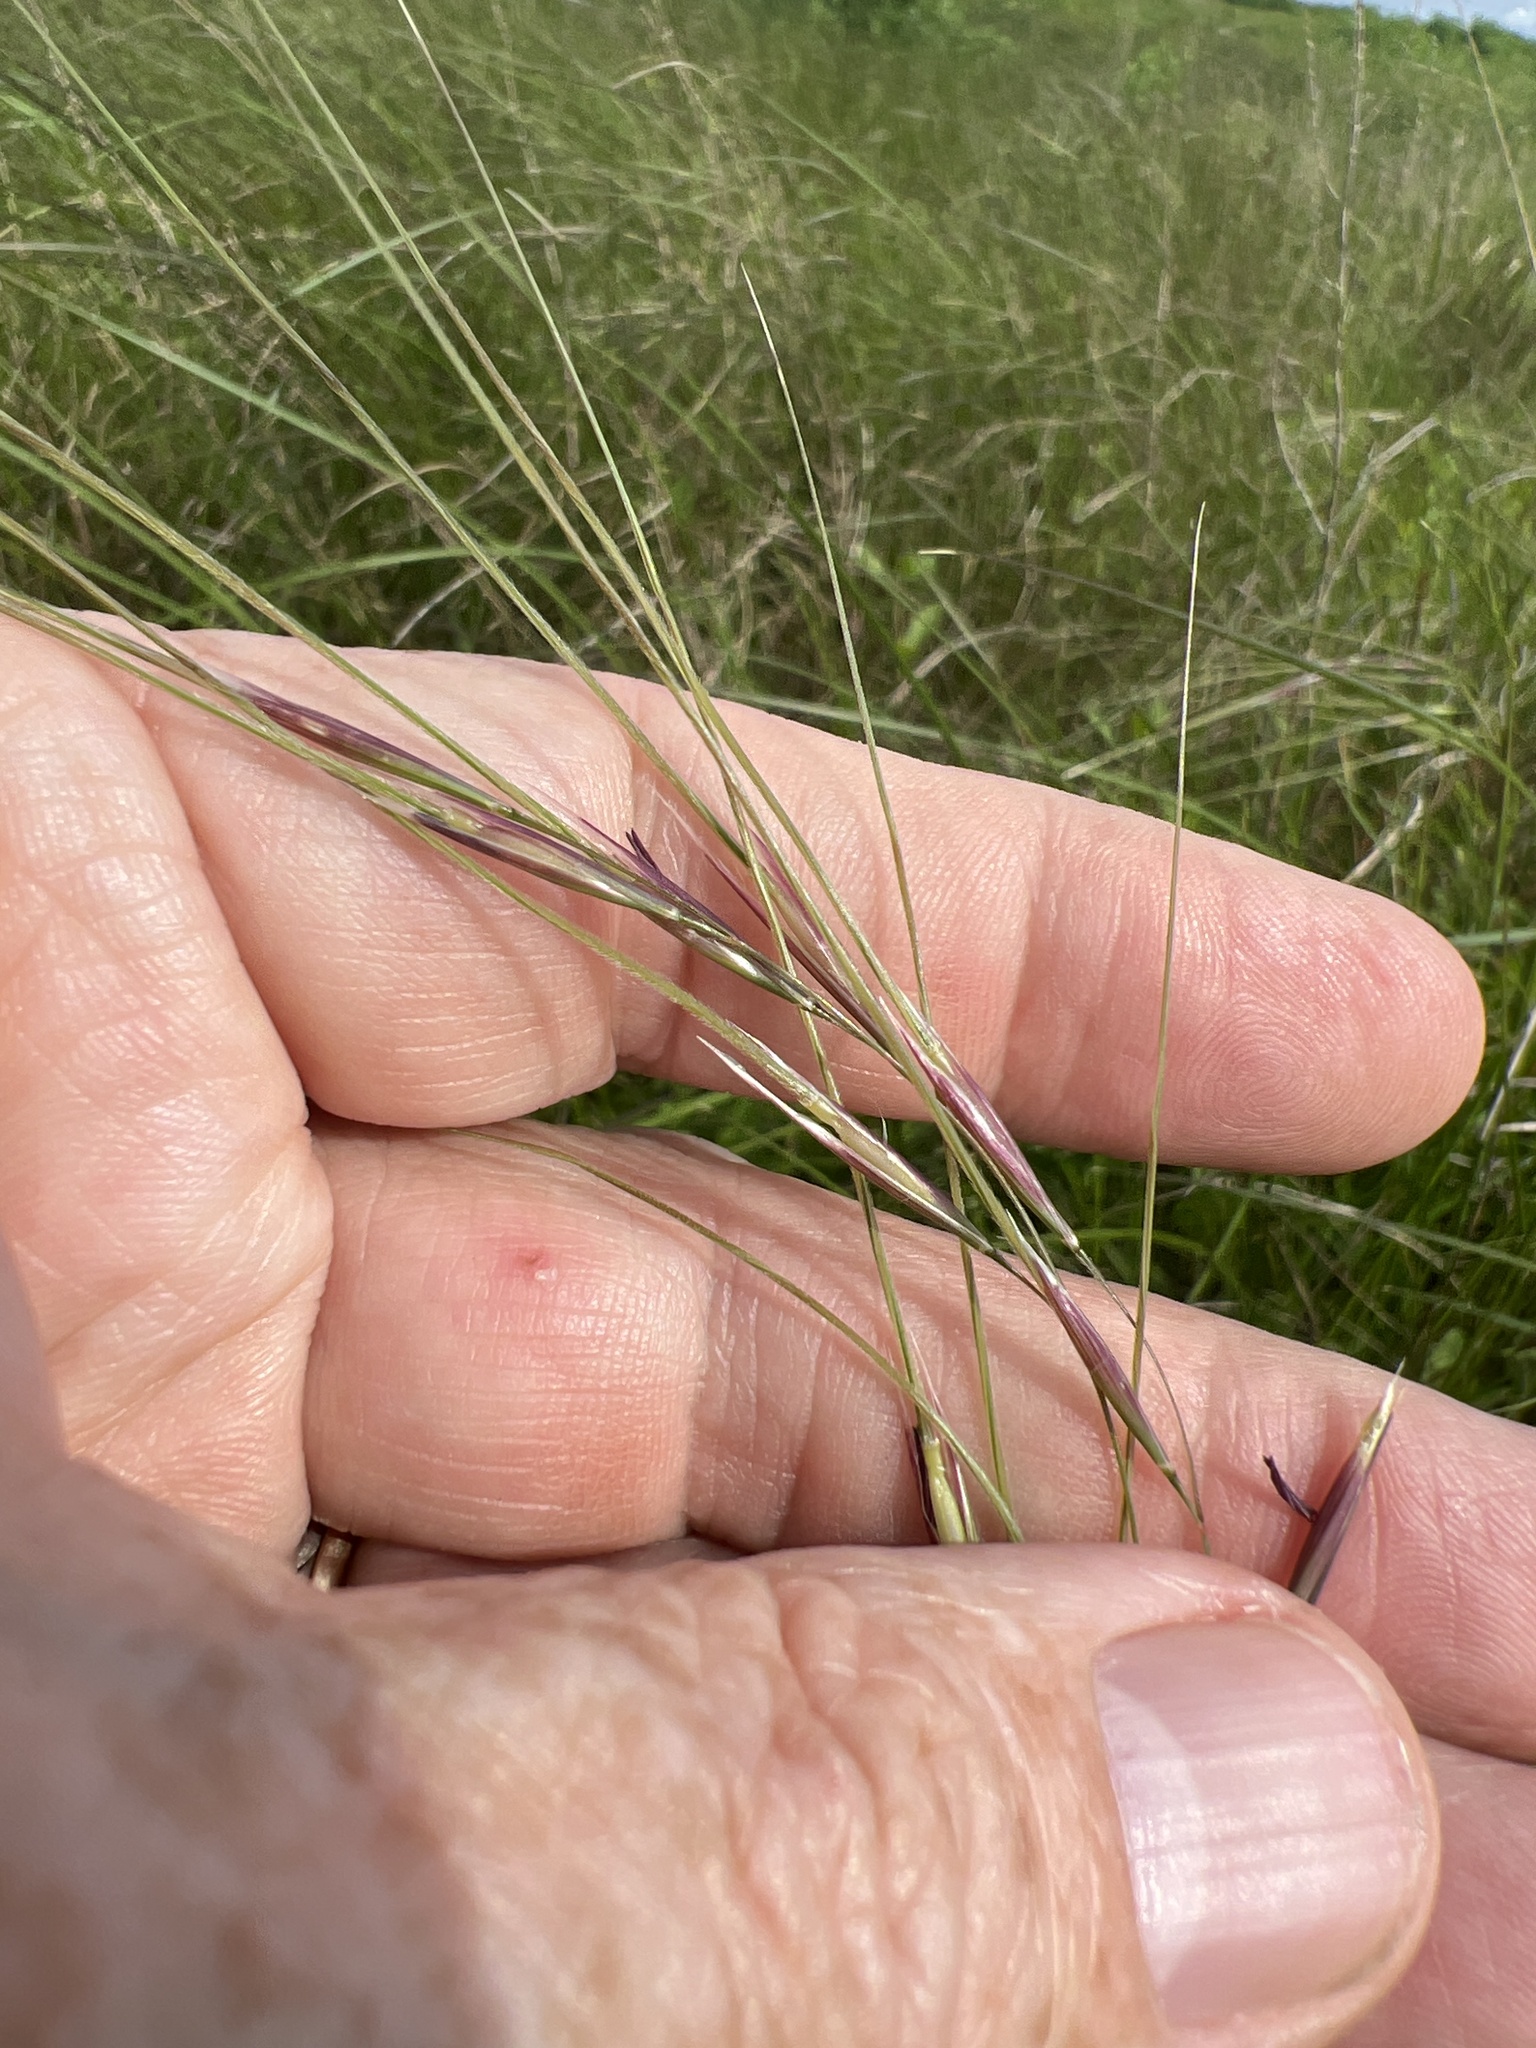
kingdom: Plantae
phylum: Tracheophyta
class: Liliopsida
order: Poales
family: Poaceae
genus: Nassella
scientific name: Nassella leucotricha
